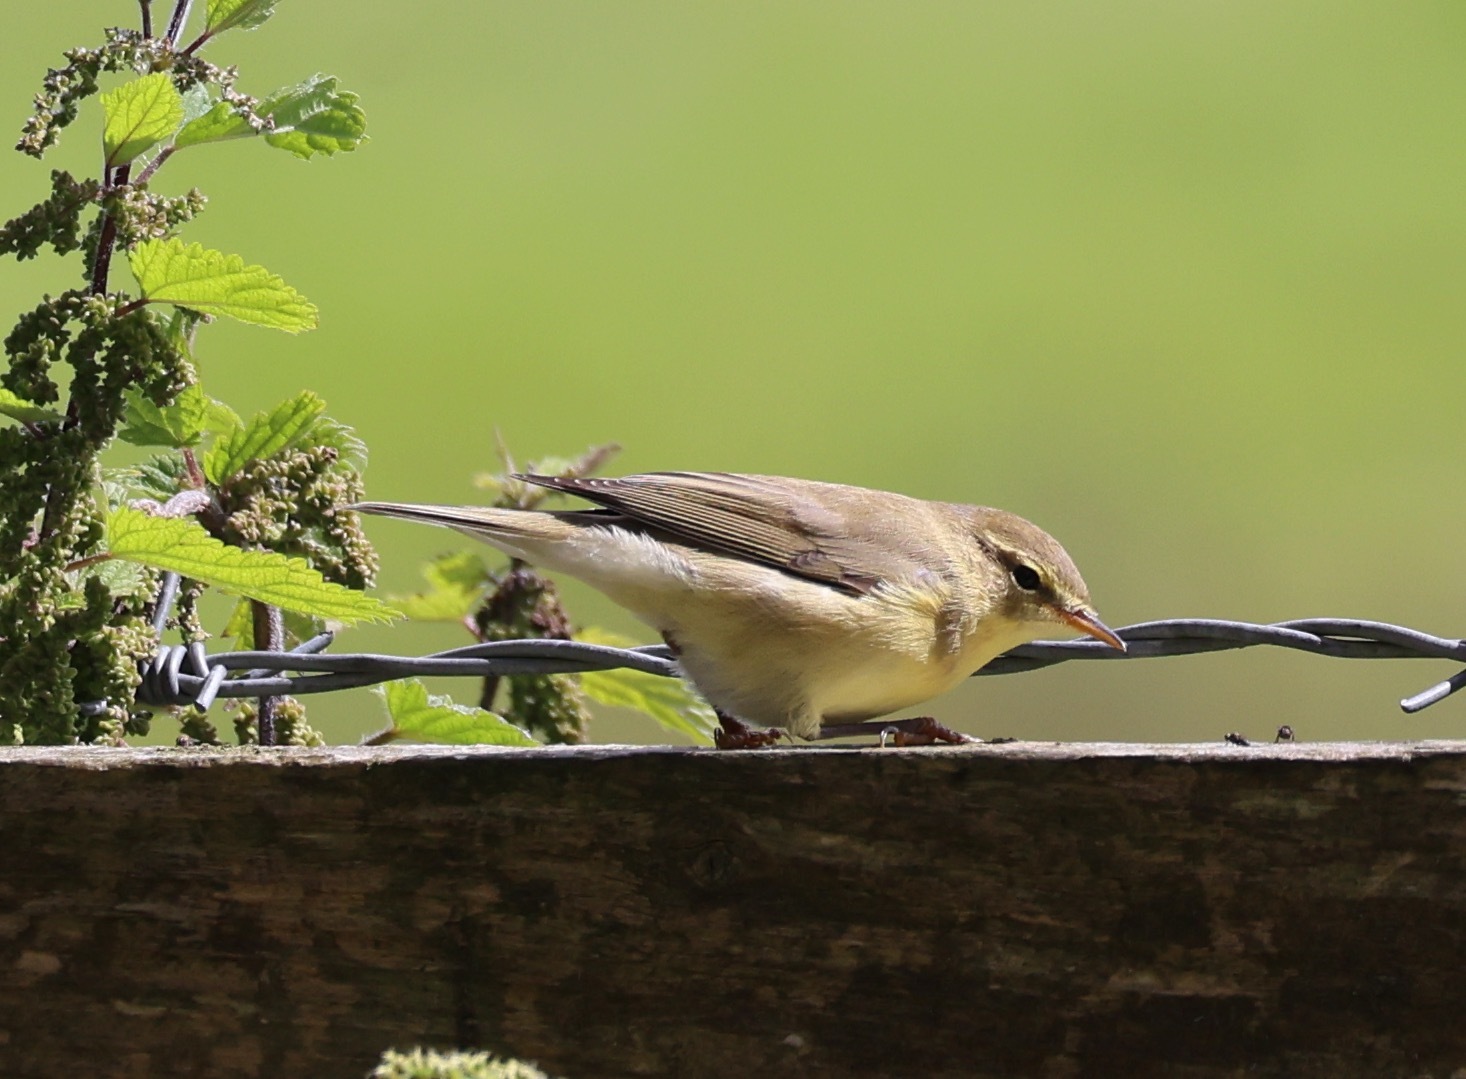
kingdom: Animalia
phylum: Chordata
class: Aves
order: Passeriformes
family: Phylloscopidae
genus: Phylloscopus
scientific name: Phylloscopus trochilus
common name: Willow warbler
